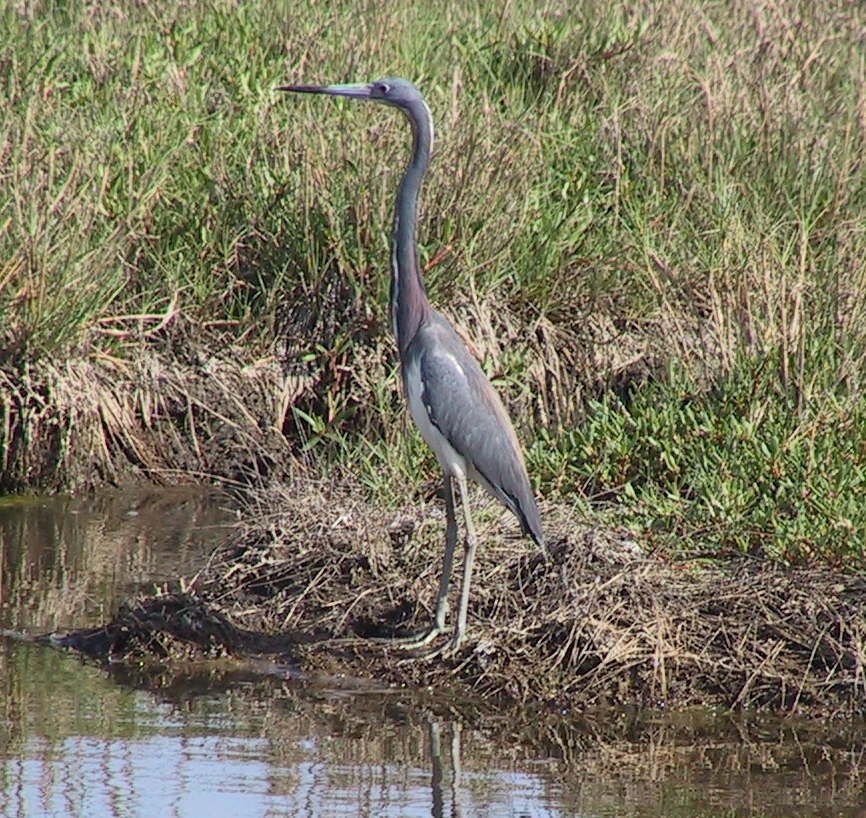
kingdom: Animalia
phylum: Chordata
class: Aves
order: Pelecaniformes
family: Ardeidae
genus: Egretta
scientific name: Egretta tricolor
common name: Tricolored heron
